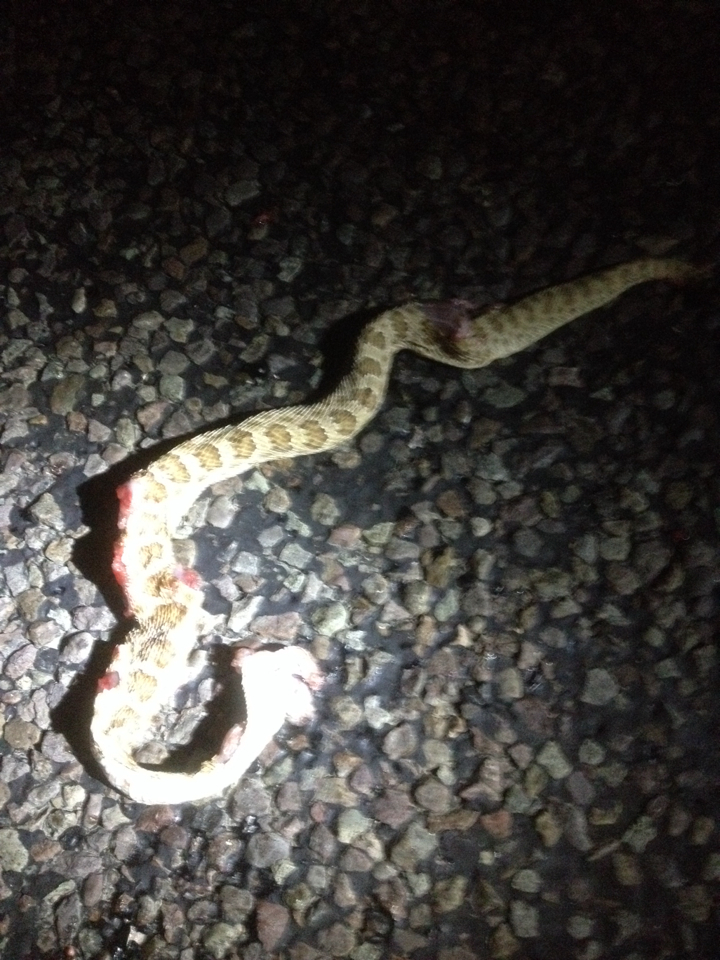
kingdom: Animalia
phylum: Chordata
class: Squamata
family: Viperidae
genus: Crotalus
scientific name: Crotalus viridis
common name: Prairie rattlesnake
